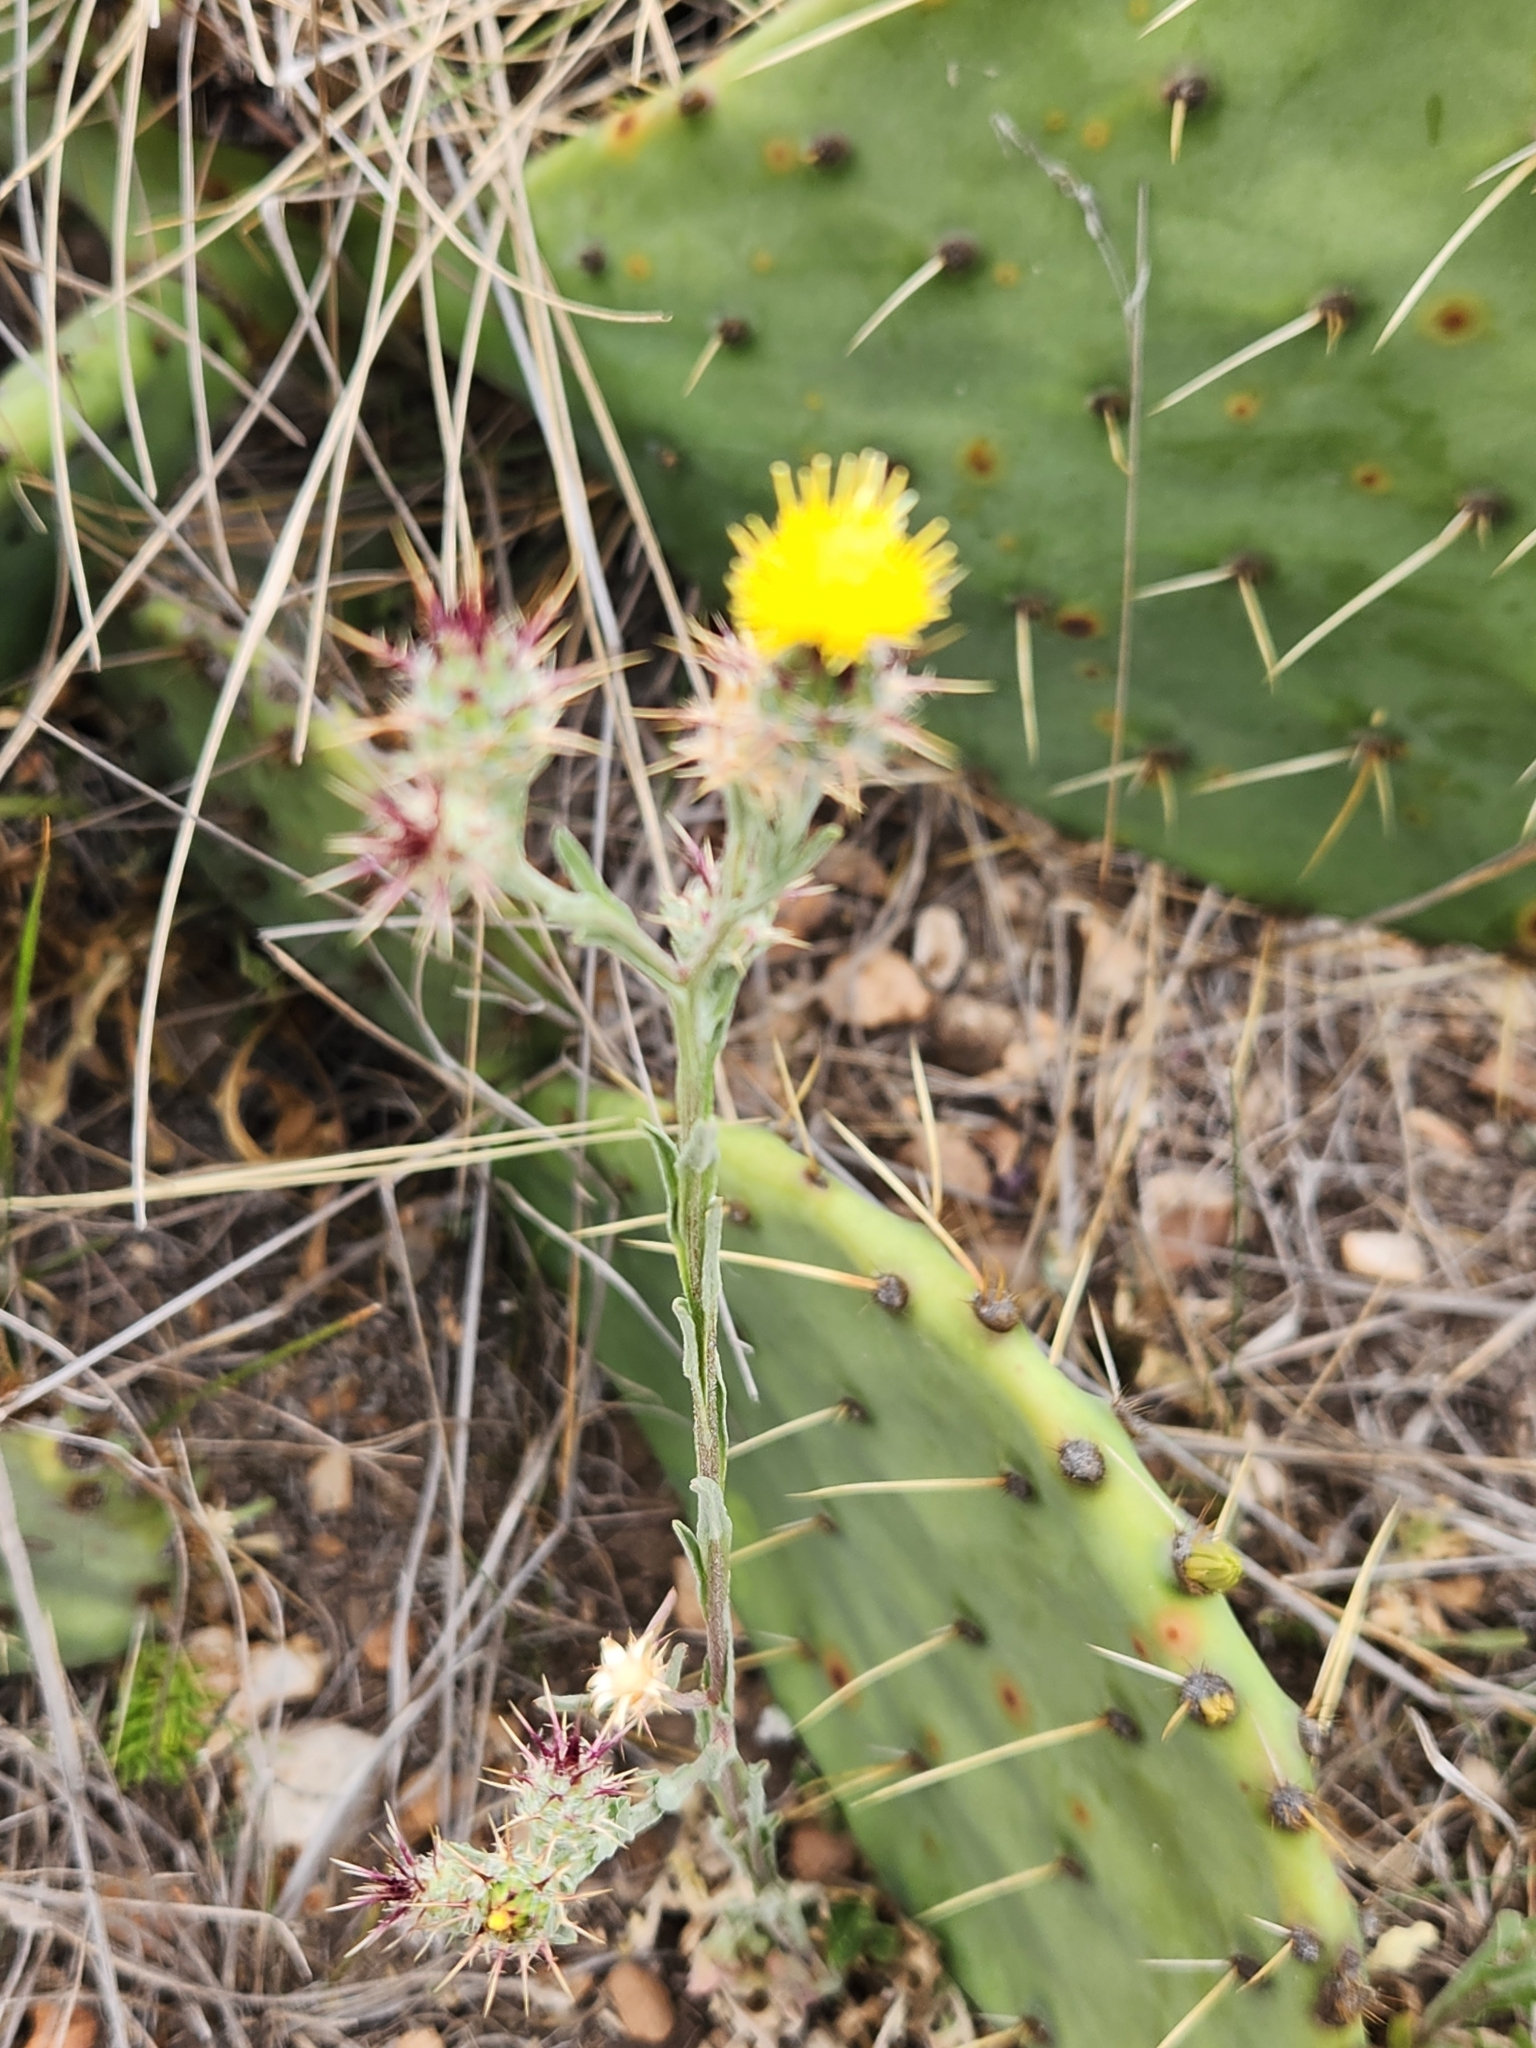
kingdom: Plantae
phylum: Tracheophyta
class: Magnoliopsida
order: Asterales
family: Asteraceae
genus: Centaurea
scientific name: Centaurea melitensis
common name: Maltese star-thistle
